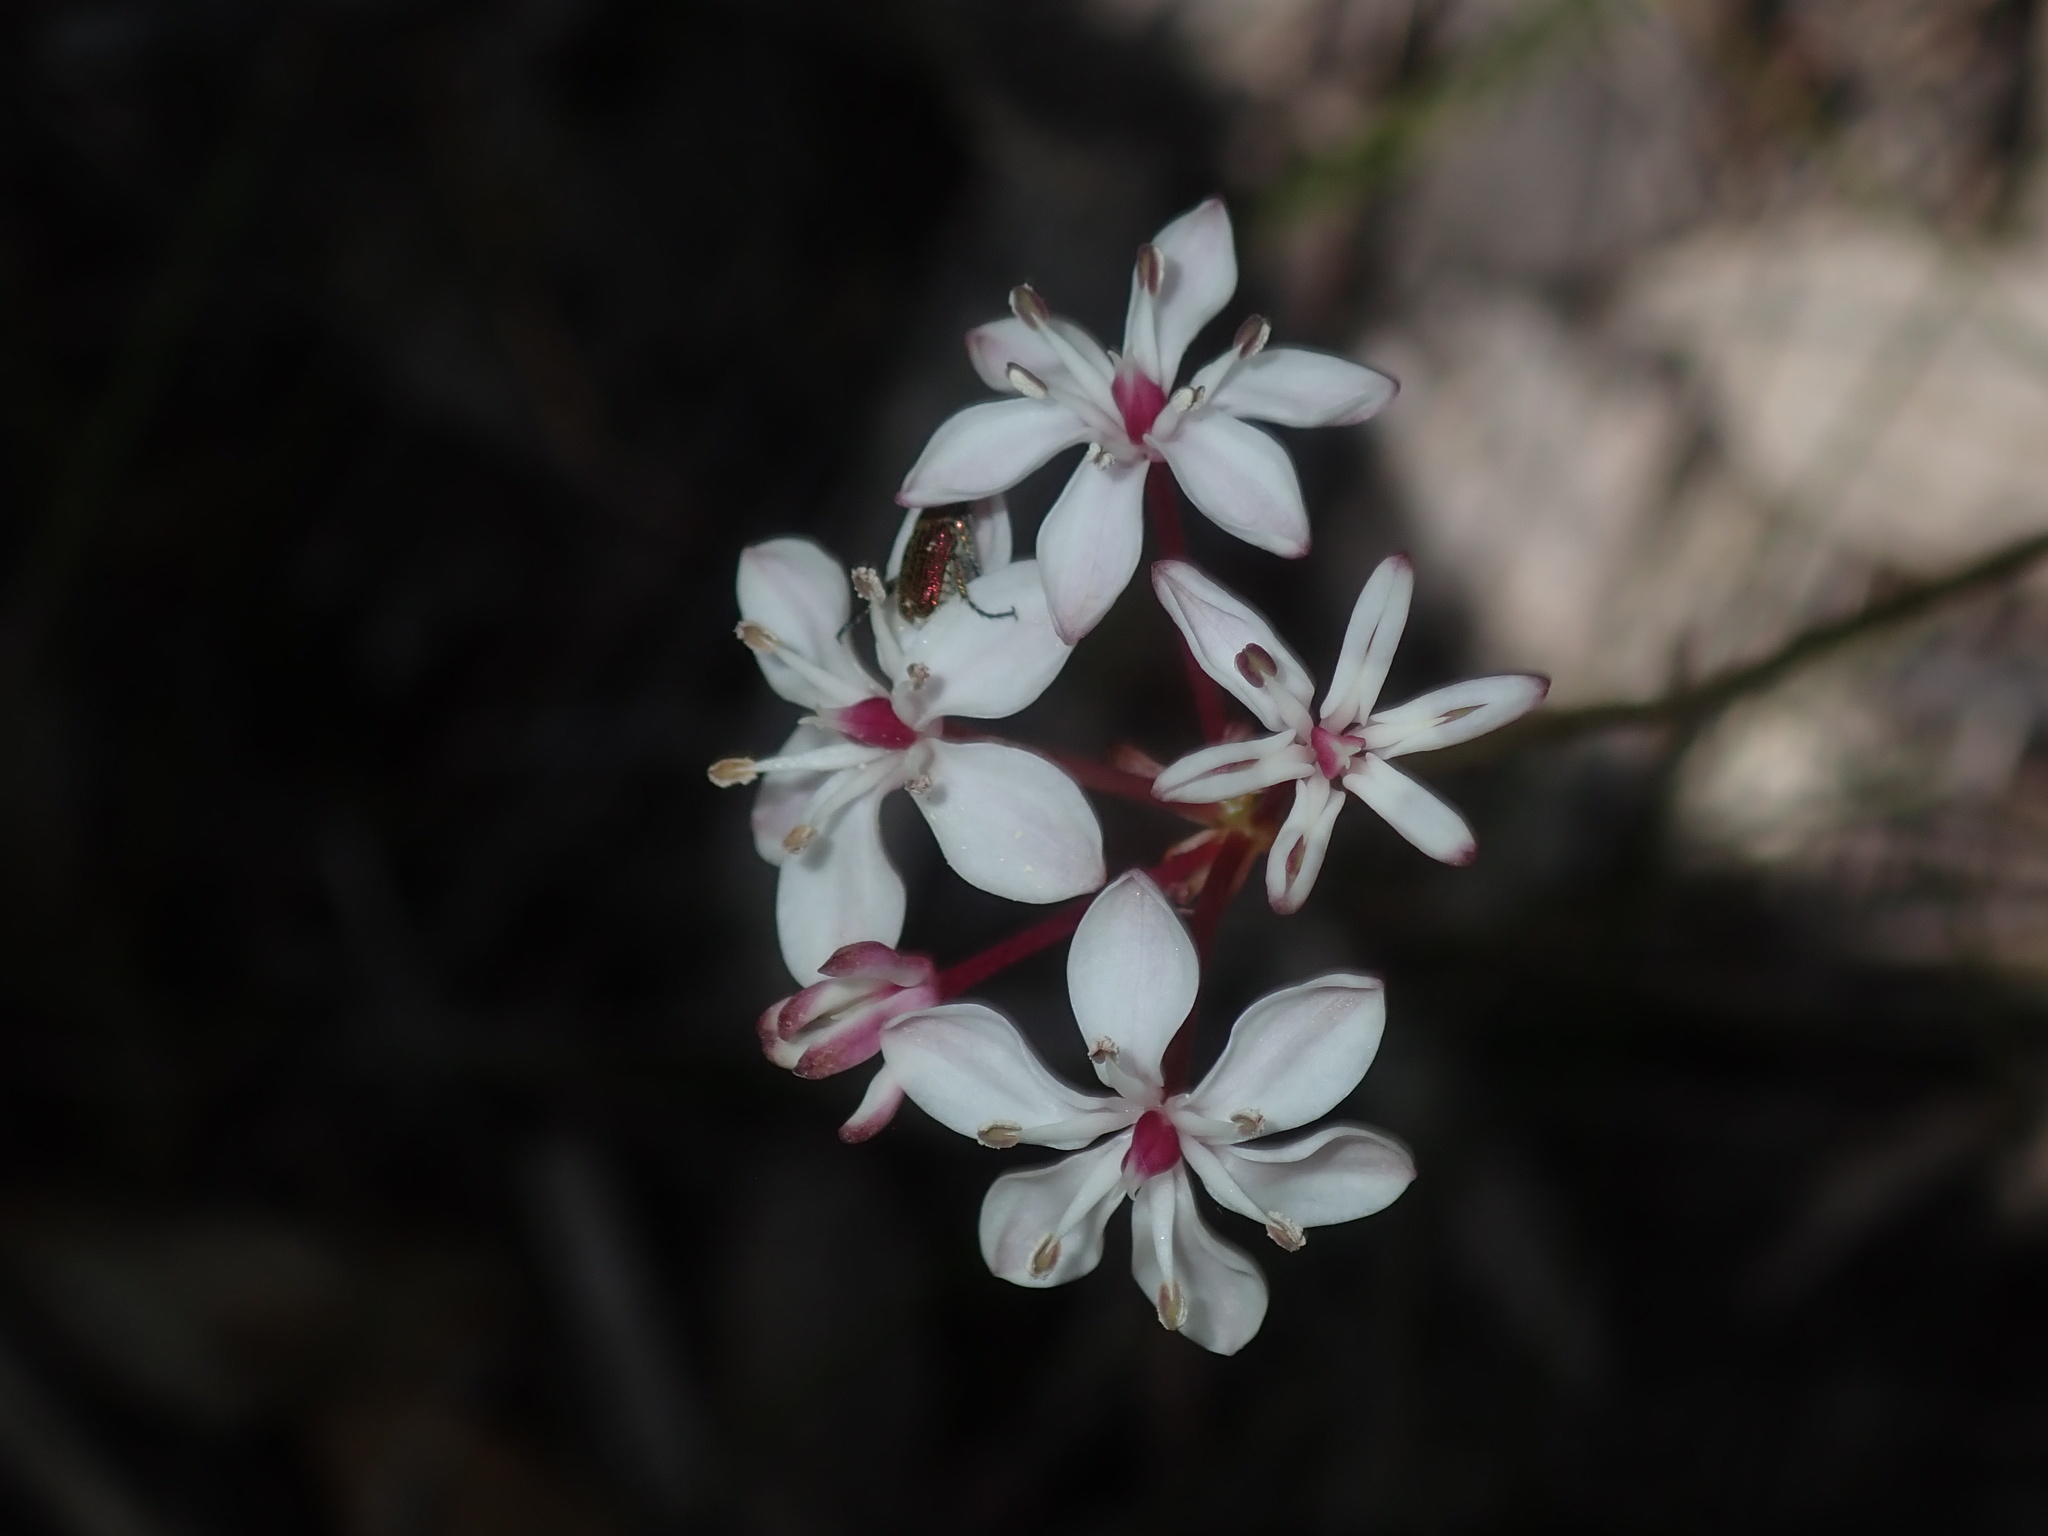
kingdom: Plantae
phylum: Tracheophyta
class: Liliopsida
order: Liliales
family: Colchicaceae
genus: Burchardia
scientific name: Burchardia umbellata
